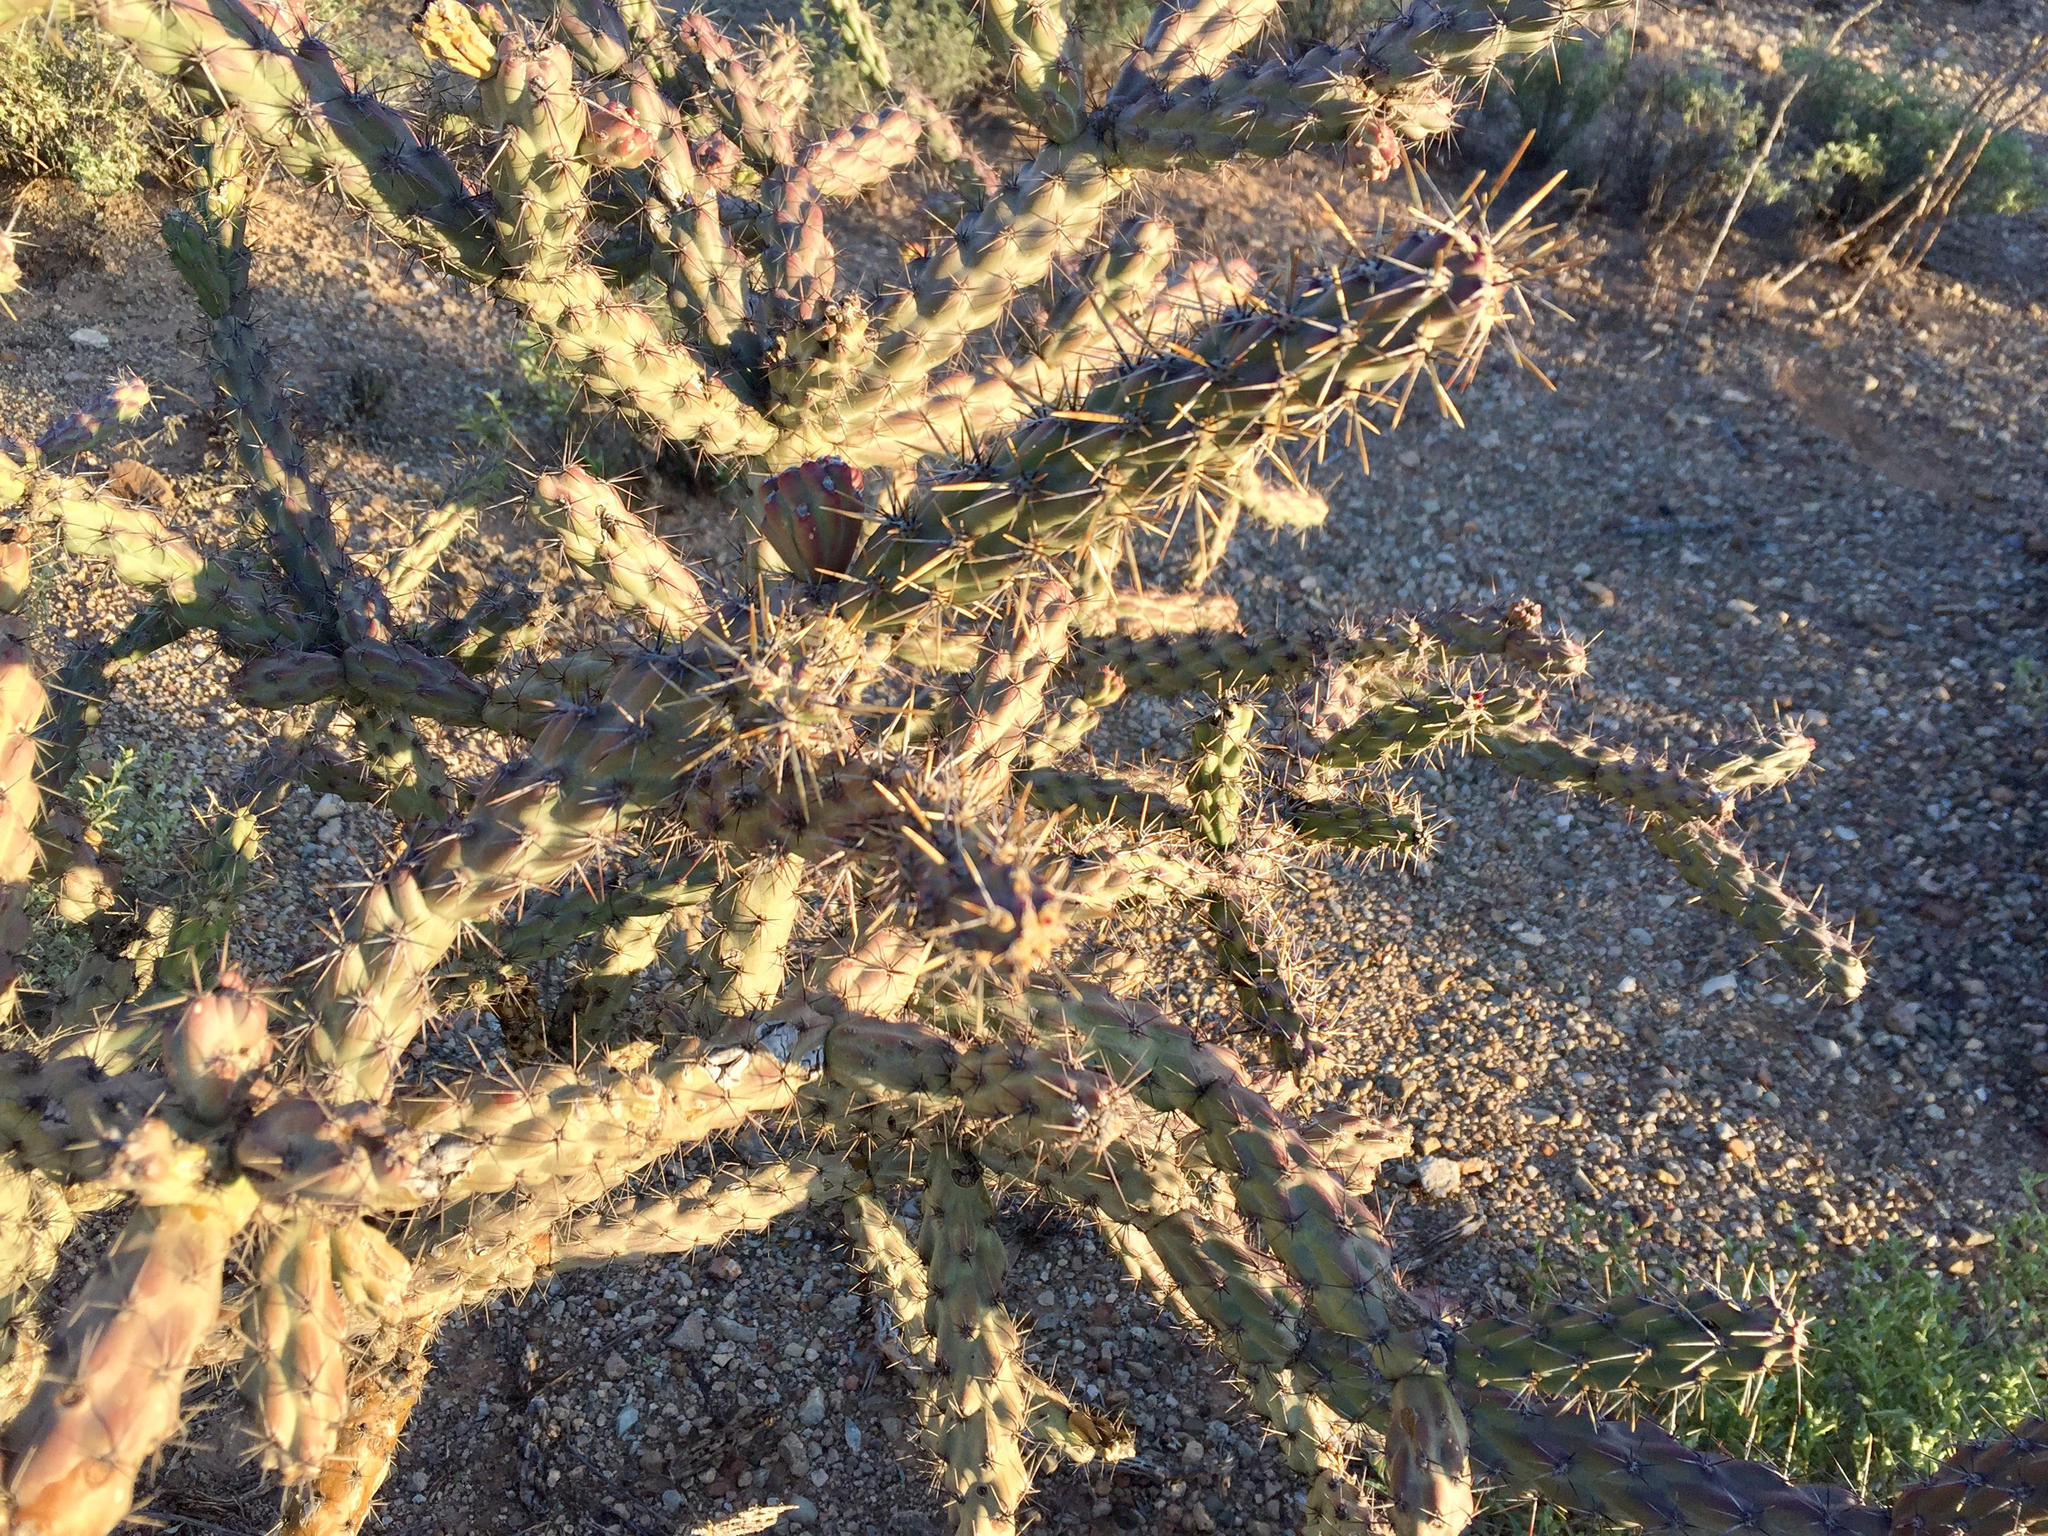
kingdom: Plantae
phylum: Tracheophyta
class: Magnoliopsida
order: Caryophyllales
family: Cactaceae
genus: Cylindropuntia
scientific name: Cylindropuntia acanthocarpa
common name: Buckhorn cholla
